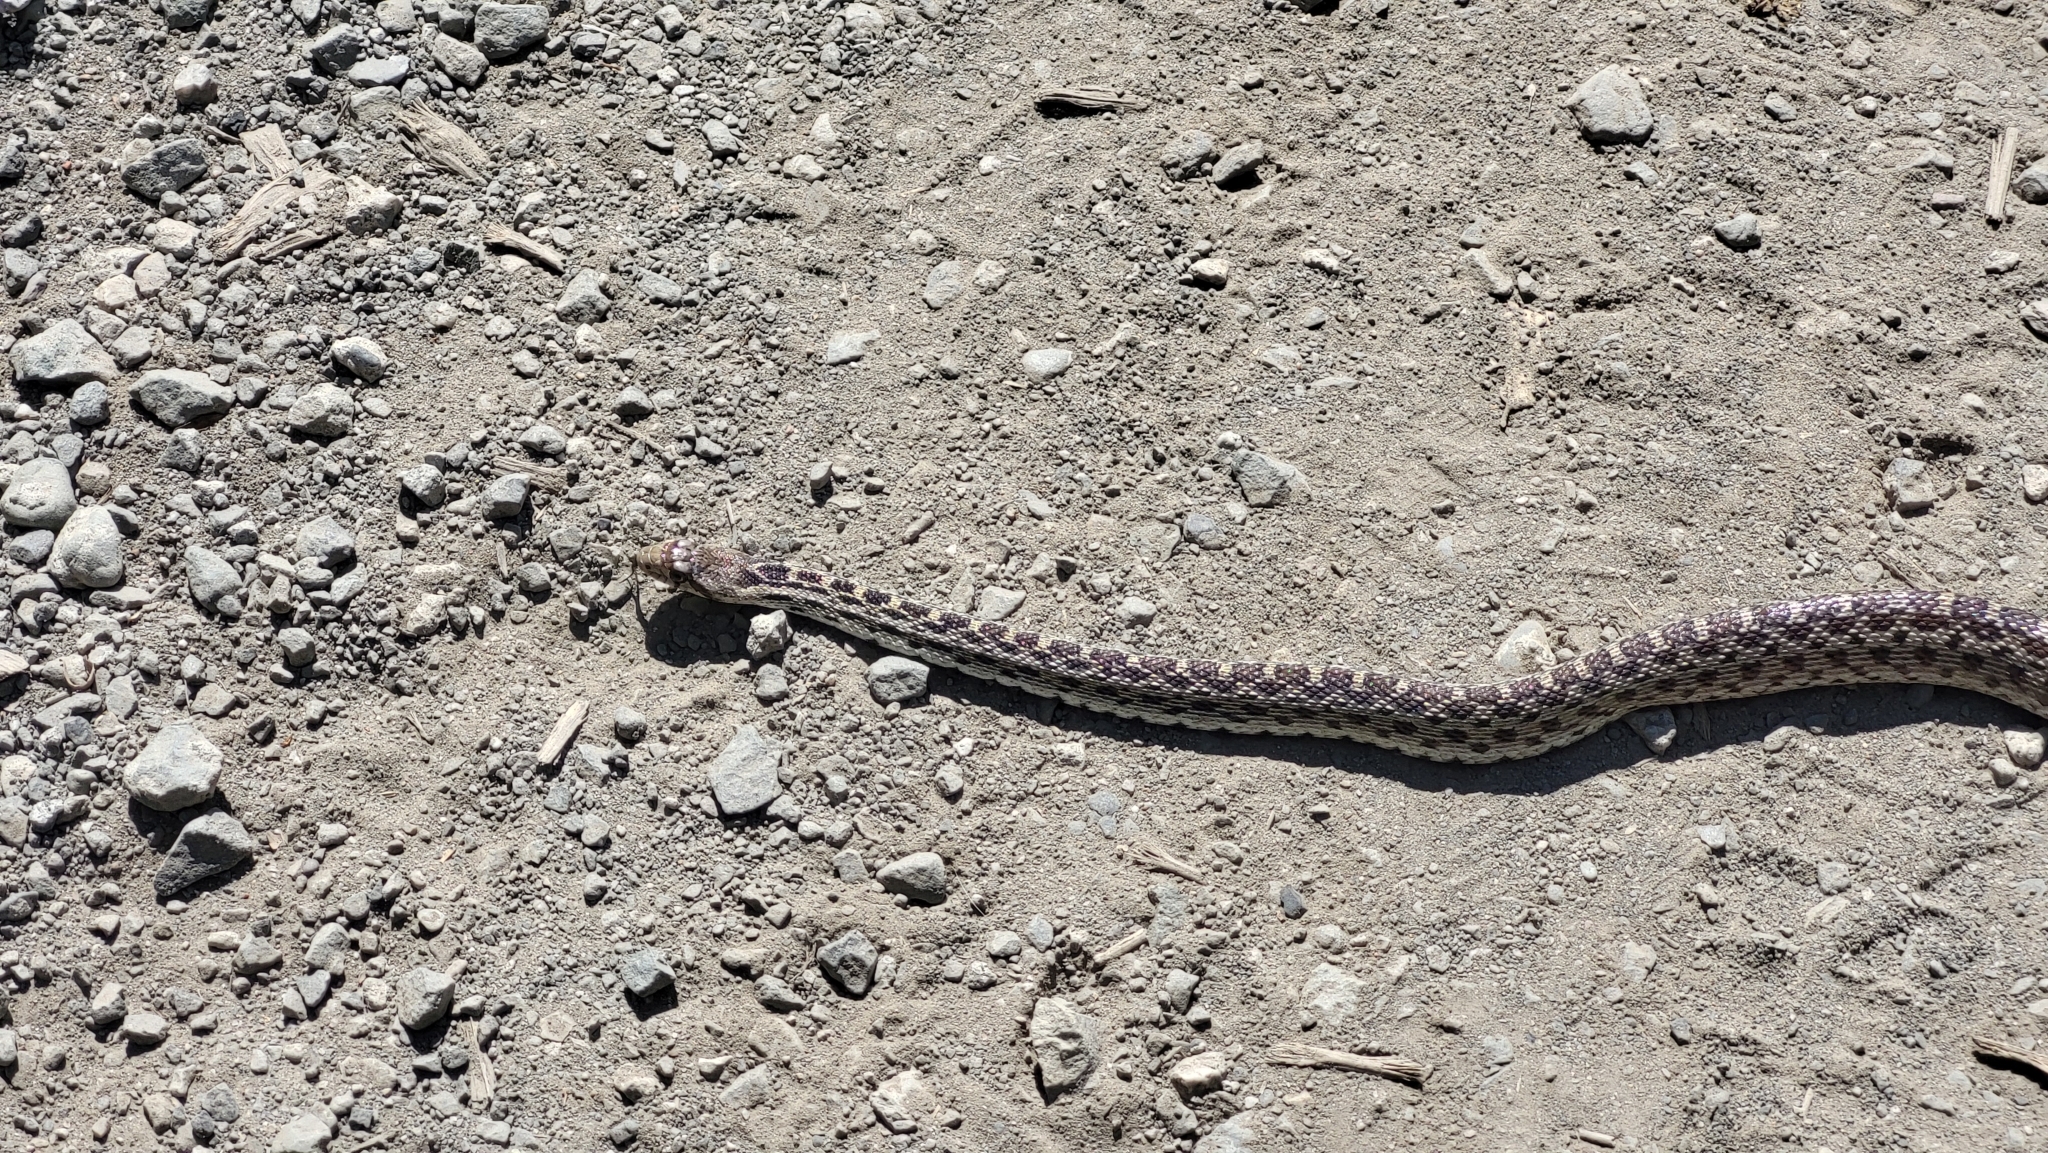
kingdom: Animalia
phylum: Chordata
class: Squamata
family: Colubridae
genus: Pituophis
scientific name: Pituophis catenifer
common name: Gopher snake
